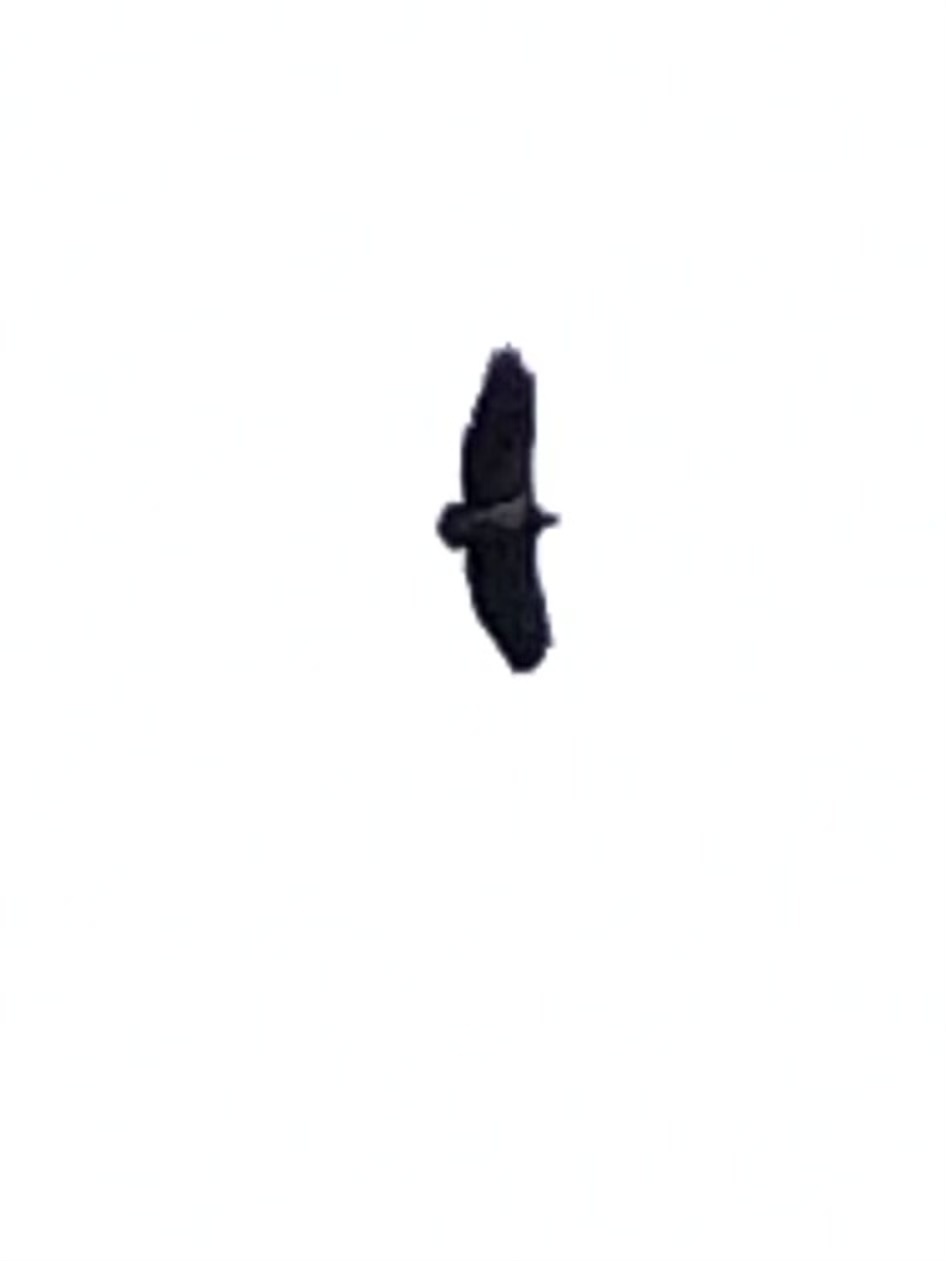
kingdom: Animalia
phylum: Chordata
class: Aves
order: Accipitriformes
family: Accipitridae
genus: Geranoaetus
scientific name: Geranoaetus melanoleucus
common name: Black-chested buzzard-eagle
